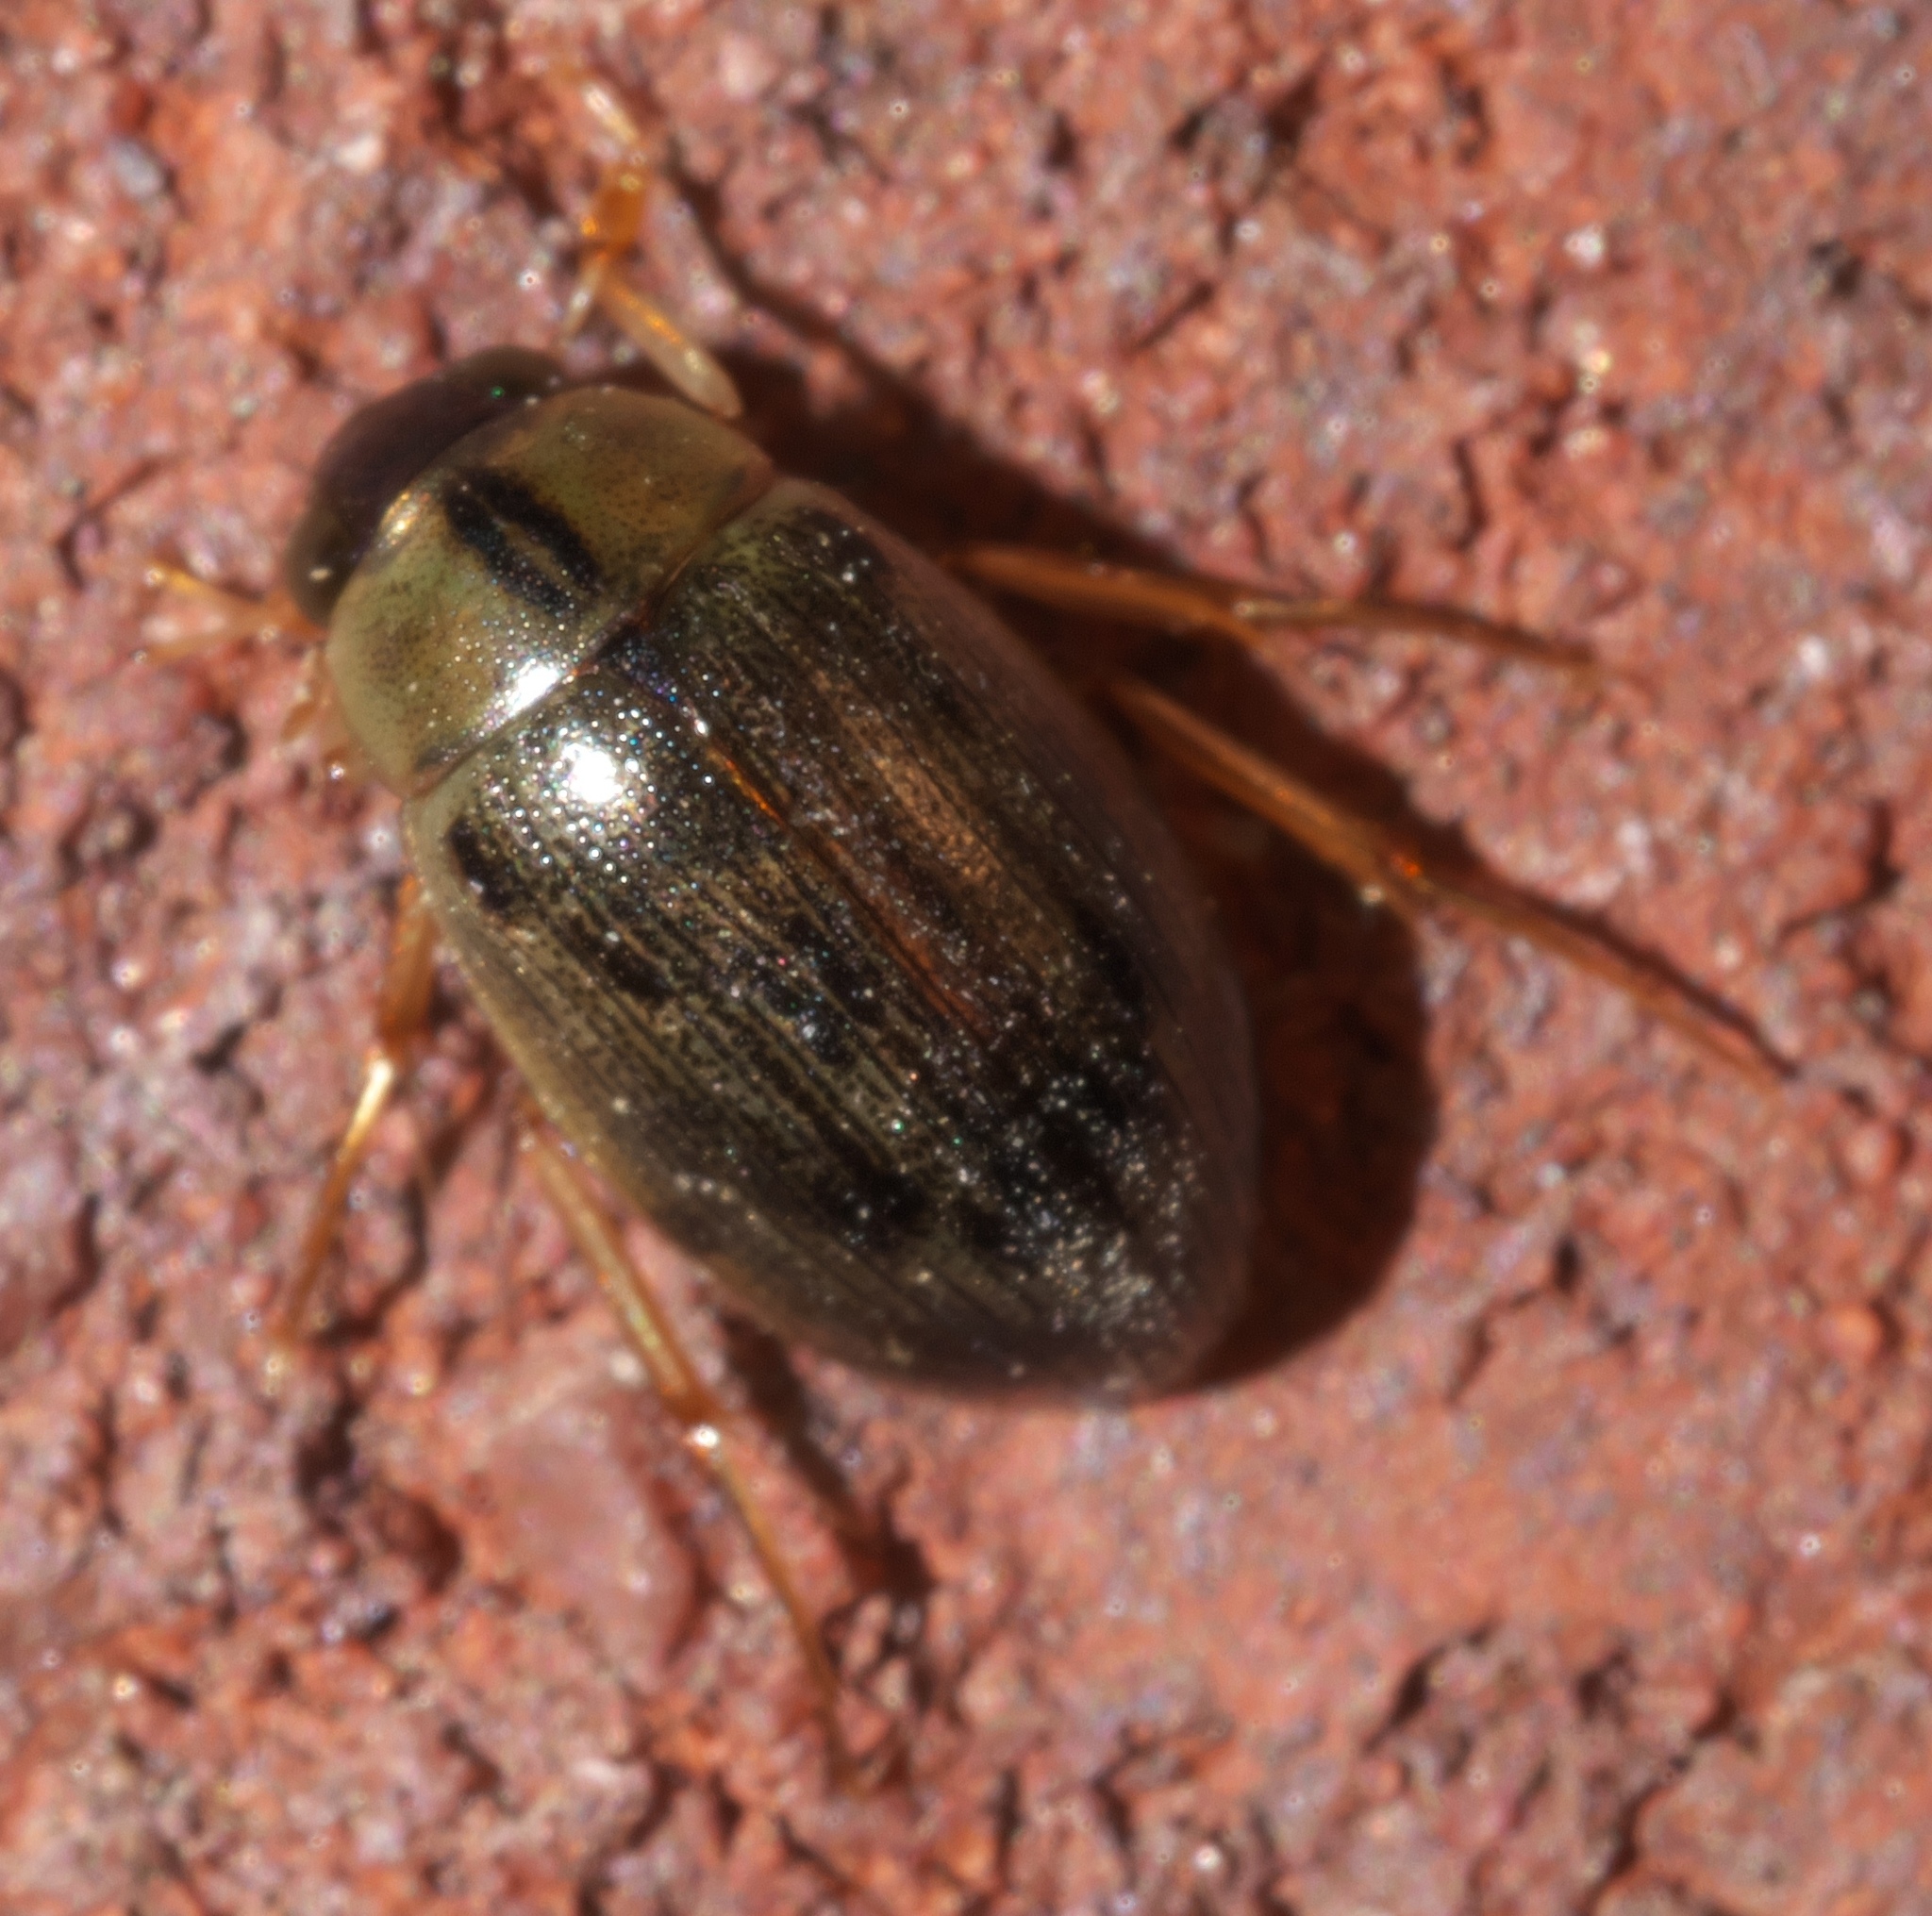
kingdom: Animalia
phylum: Arthropoda
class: Insecta
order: Coleoptera
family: Hydrophilidae
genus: Berosus
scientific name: Berosus
